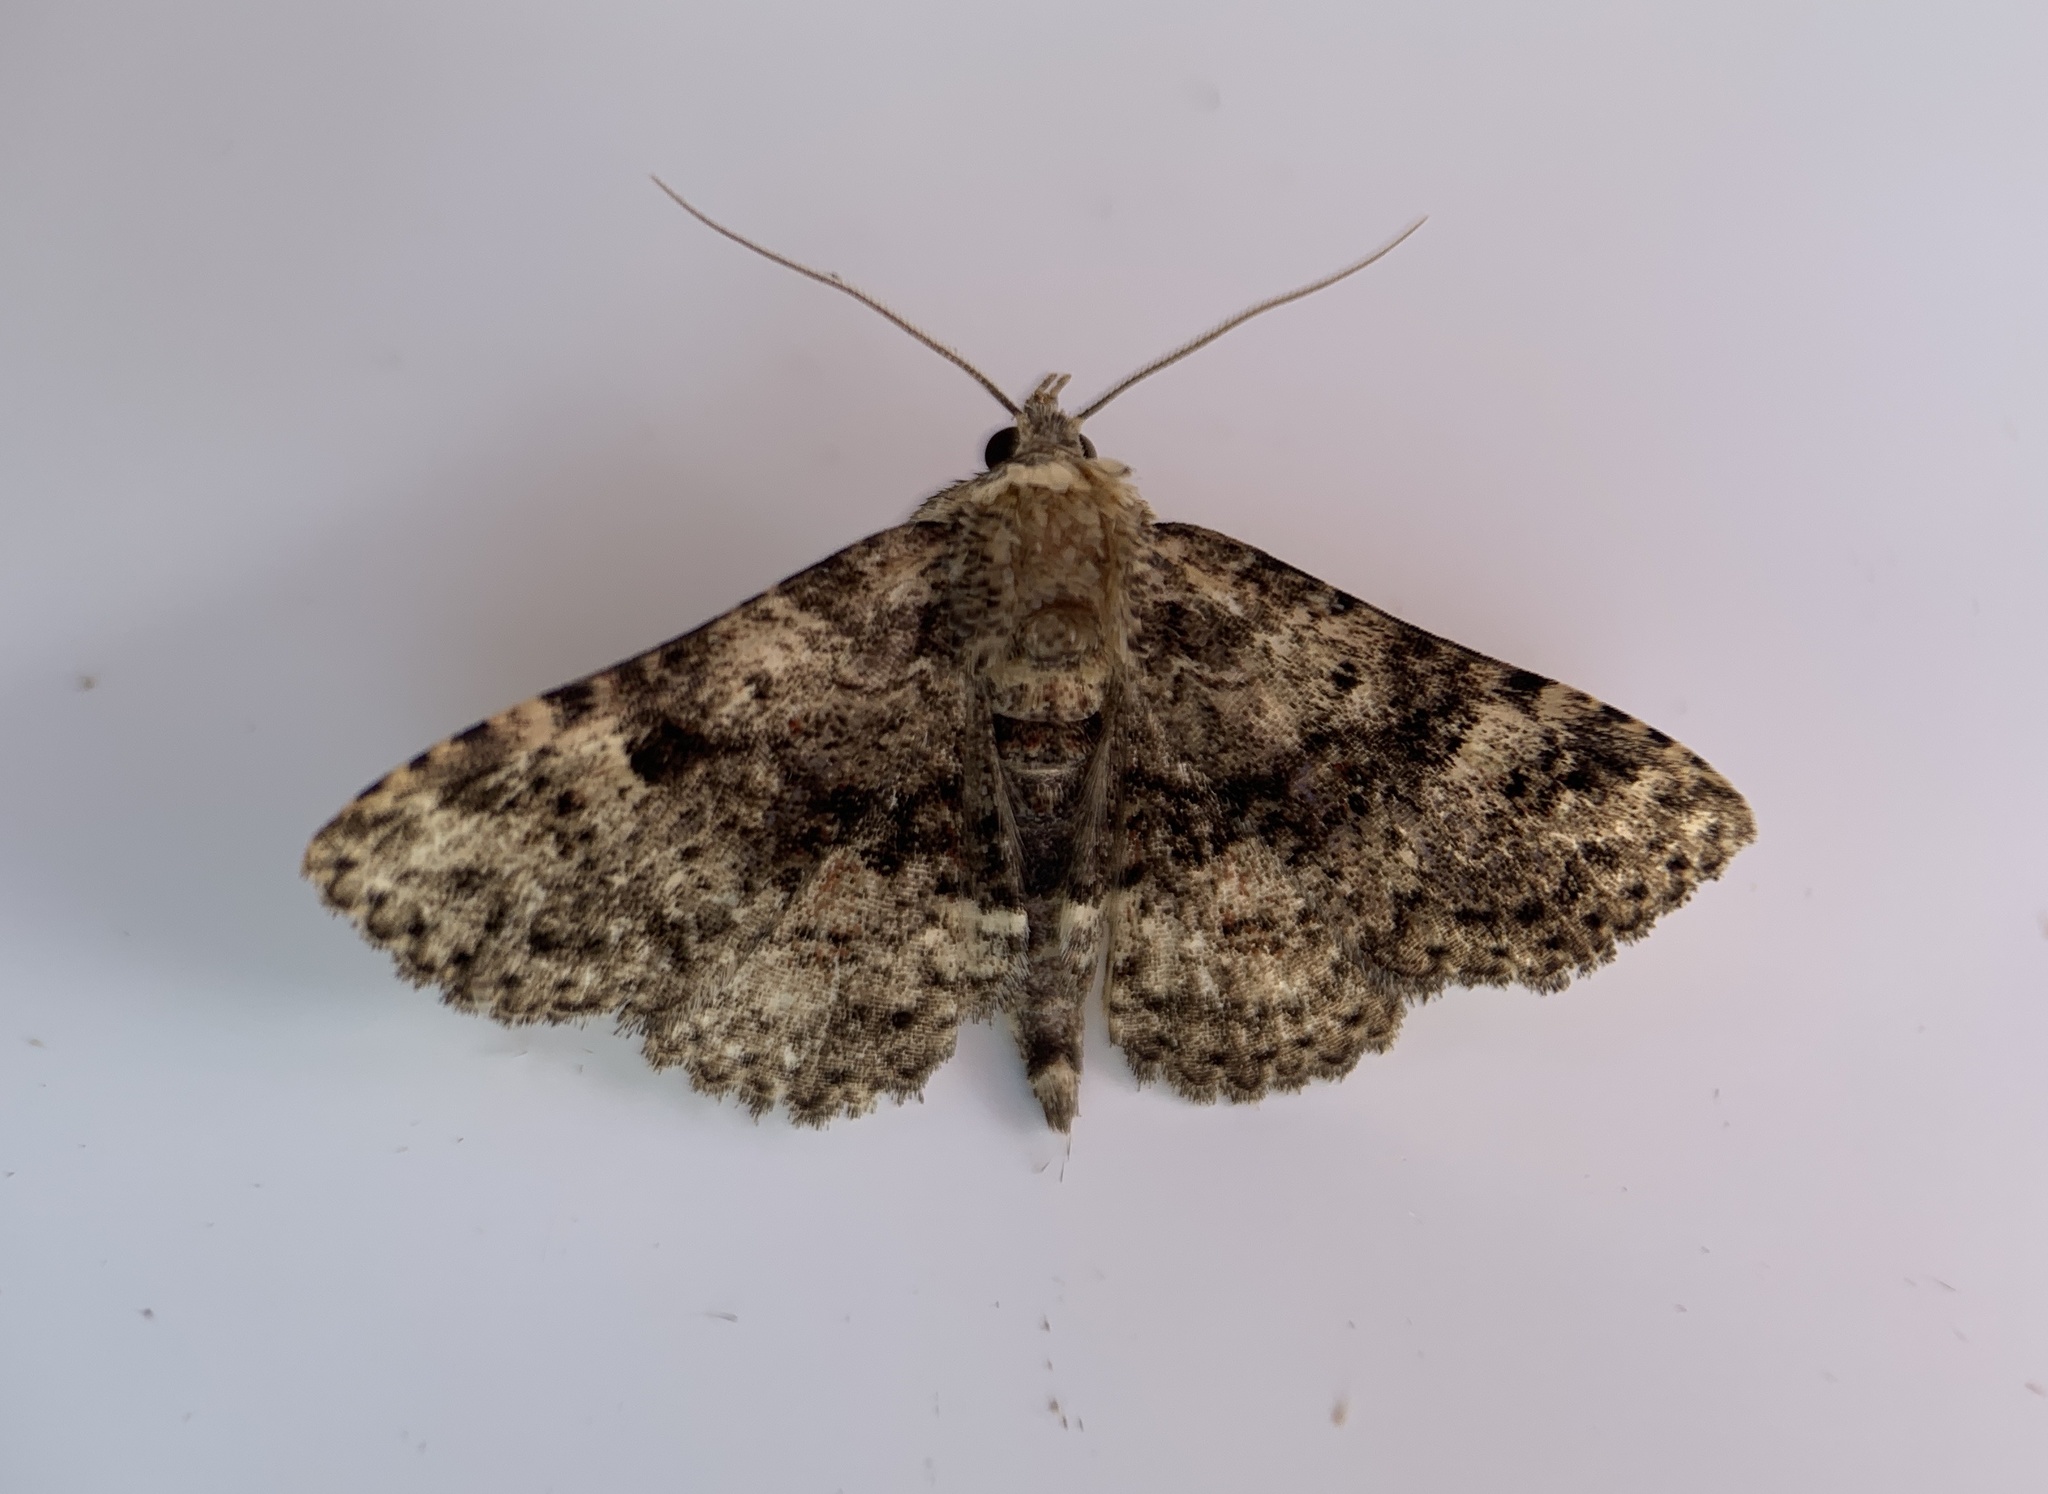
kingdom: Animalia
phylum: Arthropoda
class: Insecta
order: Lepidoptera
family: Erebidae
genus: Metalectra
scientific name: Metalectra discalis
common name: Common fungus moth
